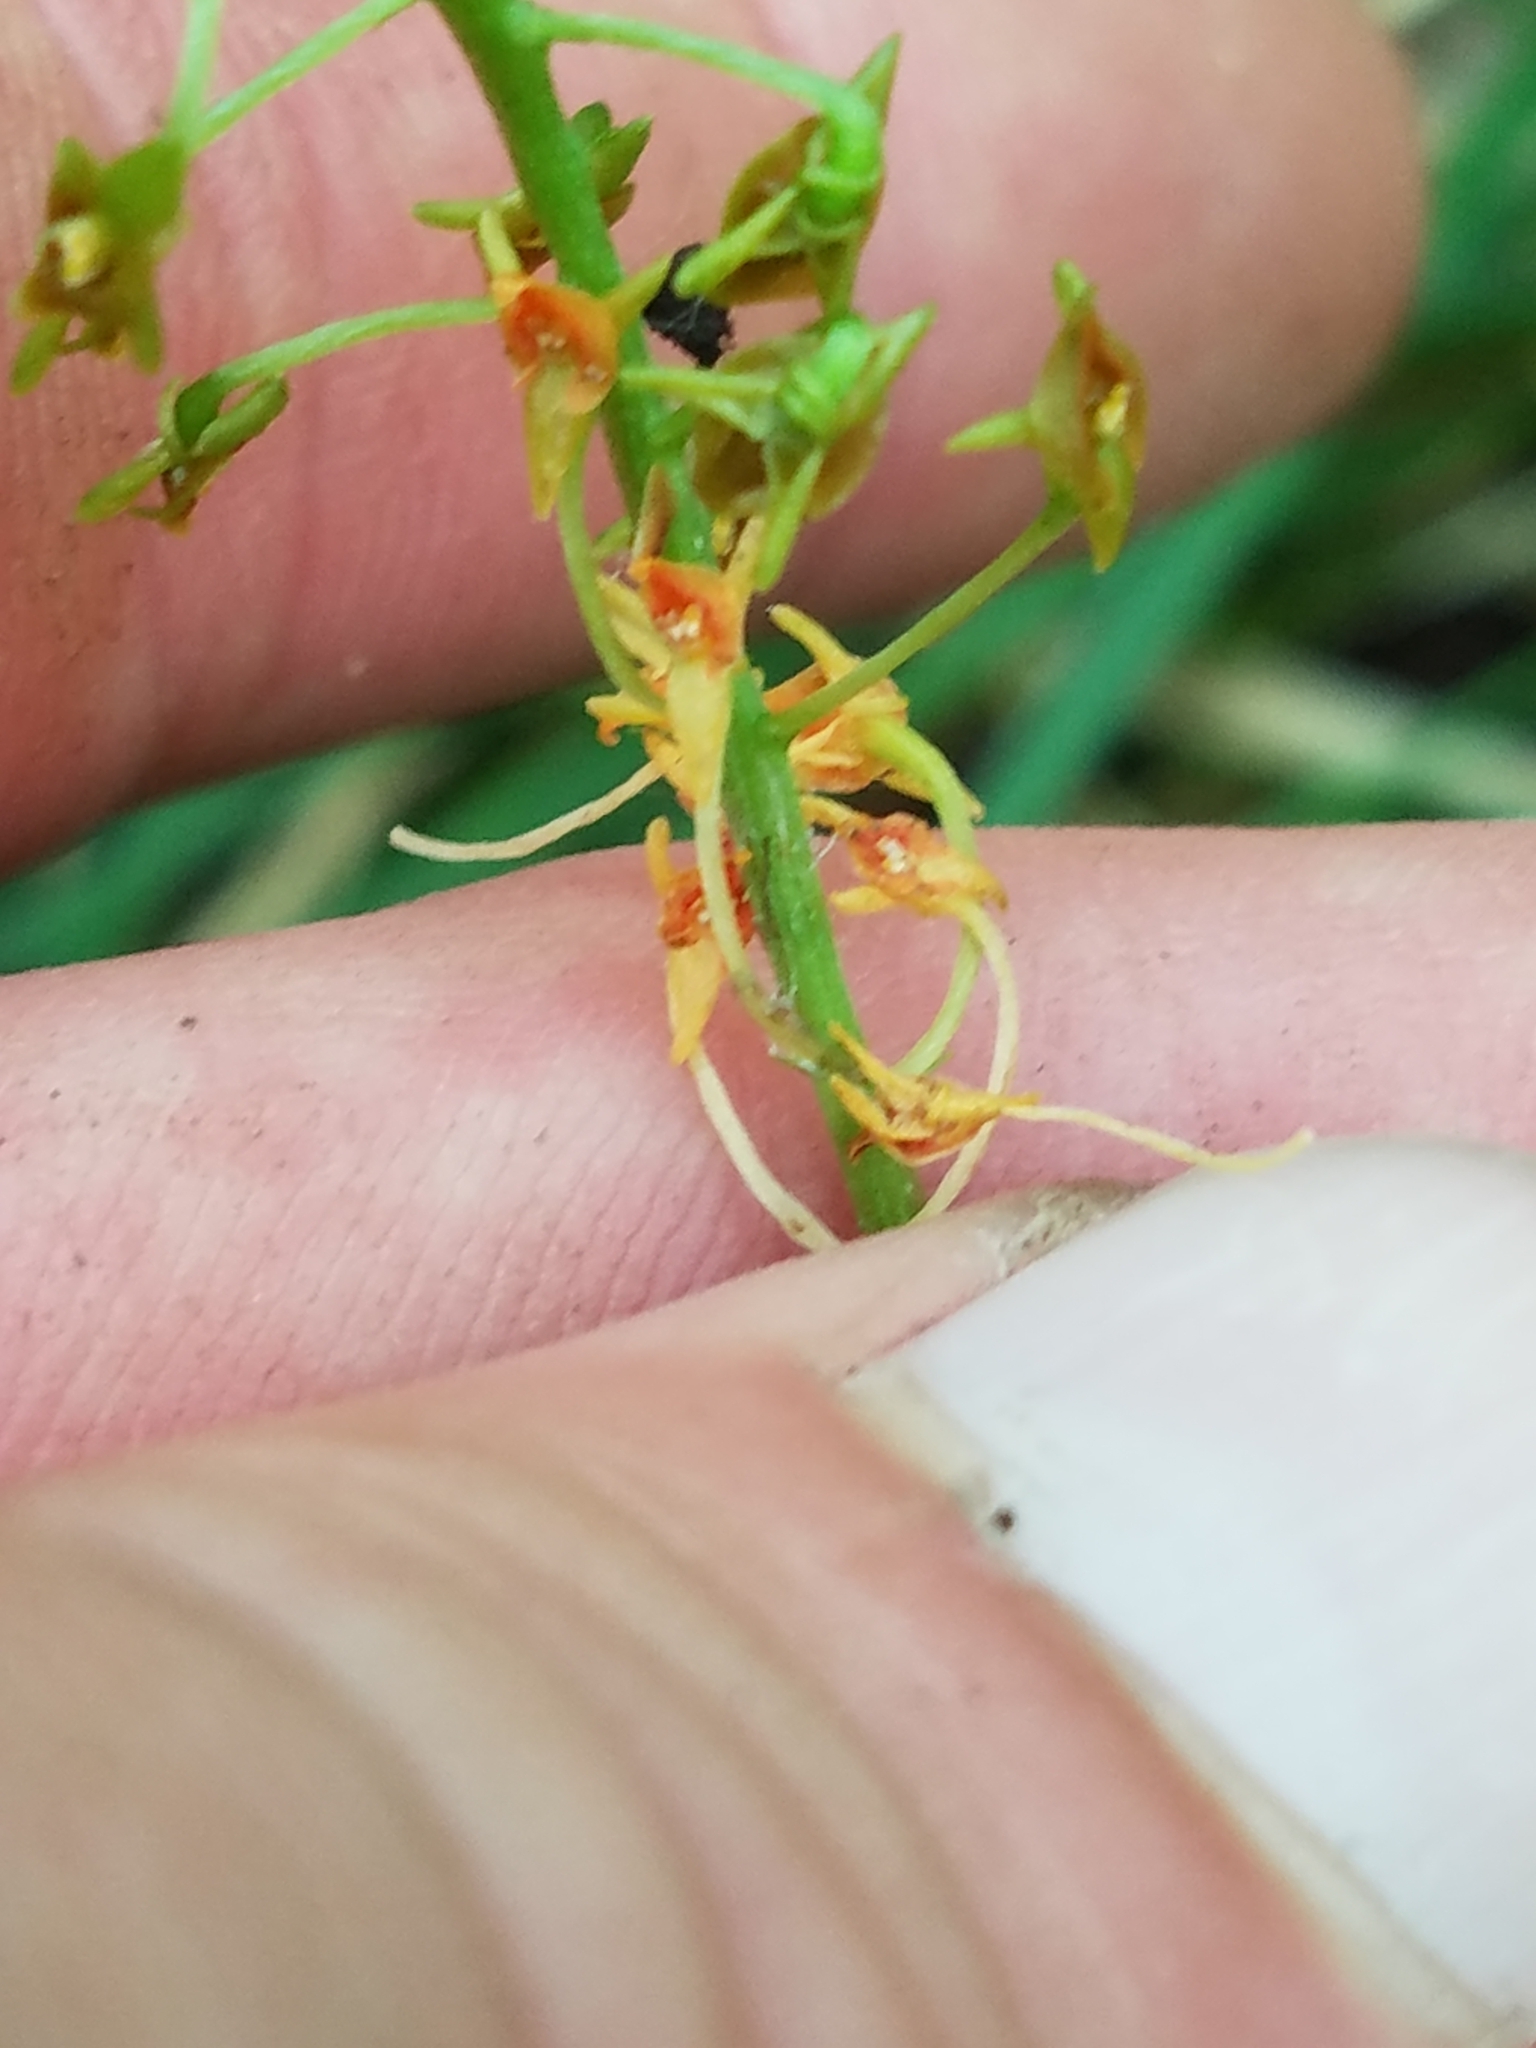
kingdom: Plantae
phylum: Tracheophyta
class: Liliopsida
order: Asparagales
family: Orchidaceae
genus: Malaxis
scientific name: Malaxis spicata
